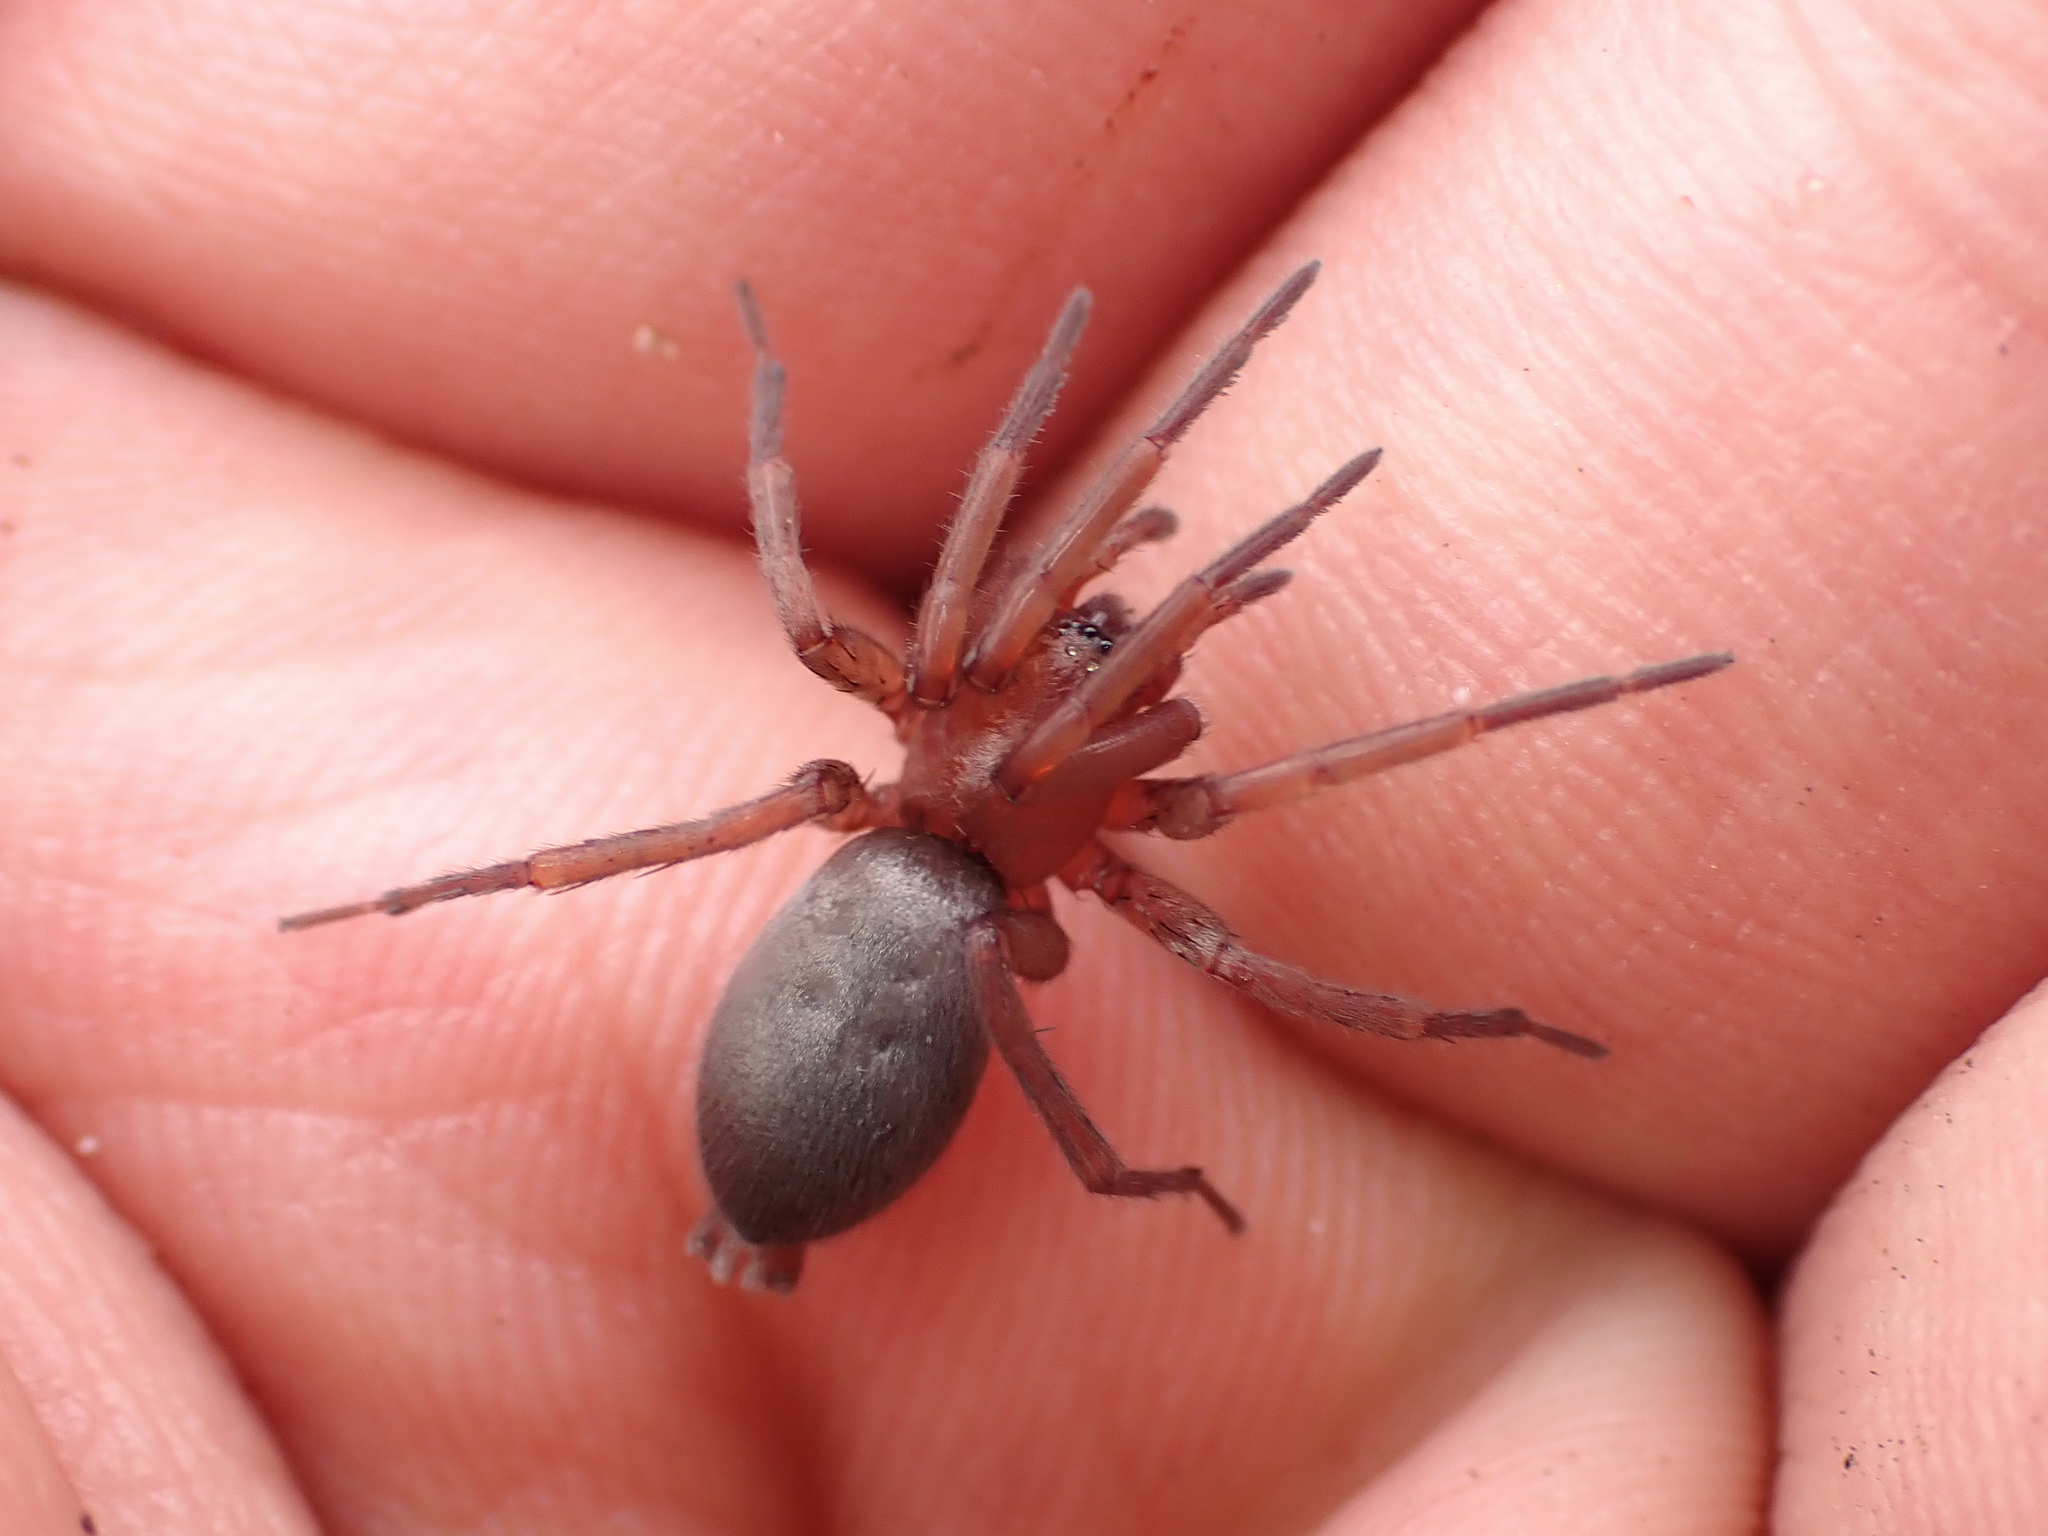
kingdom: Animalia
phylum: Arthropoda
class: Arachnida
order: Araneae
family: Gnaphosidae
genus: Hypodrassodes
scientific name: Hypodrassodes maoricus
